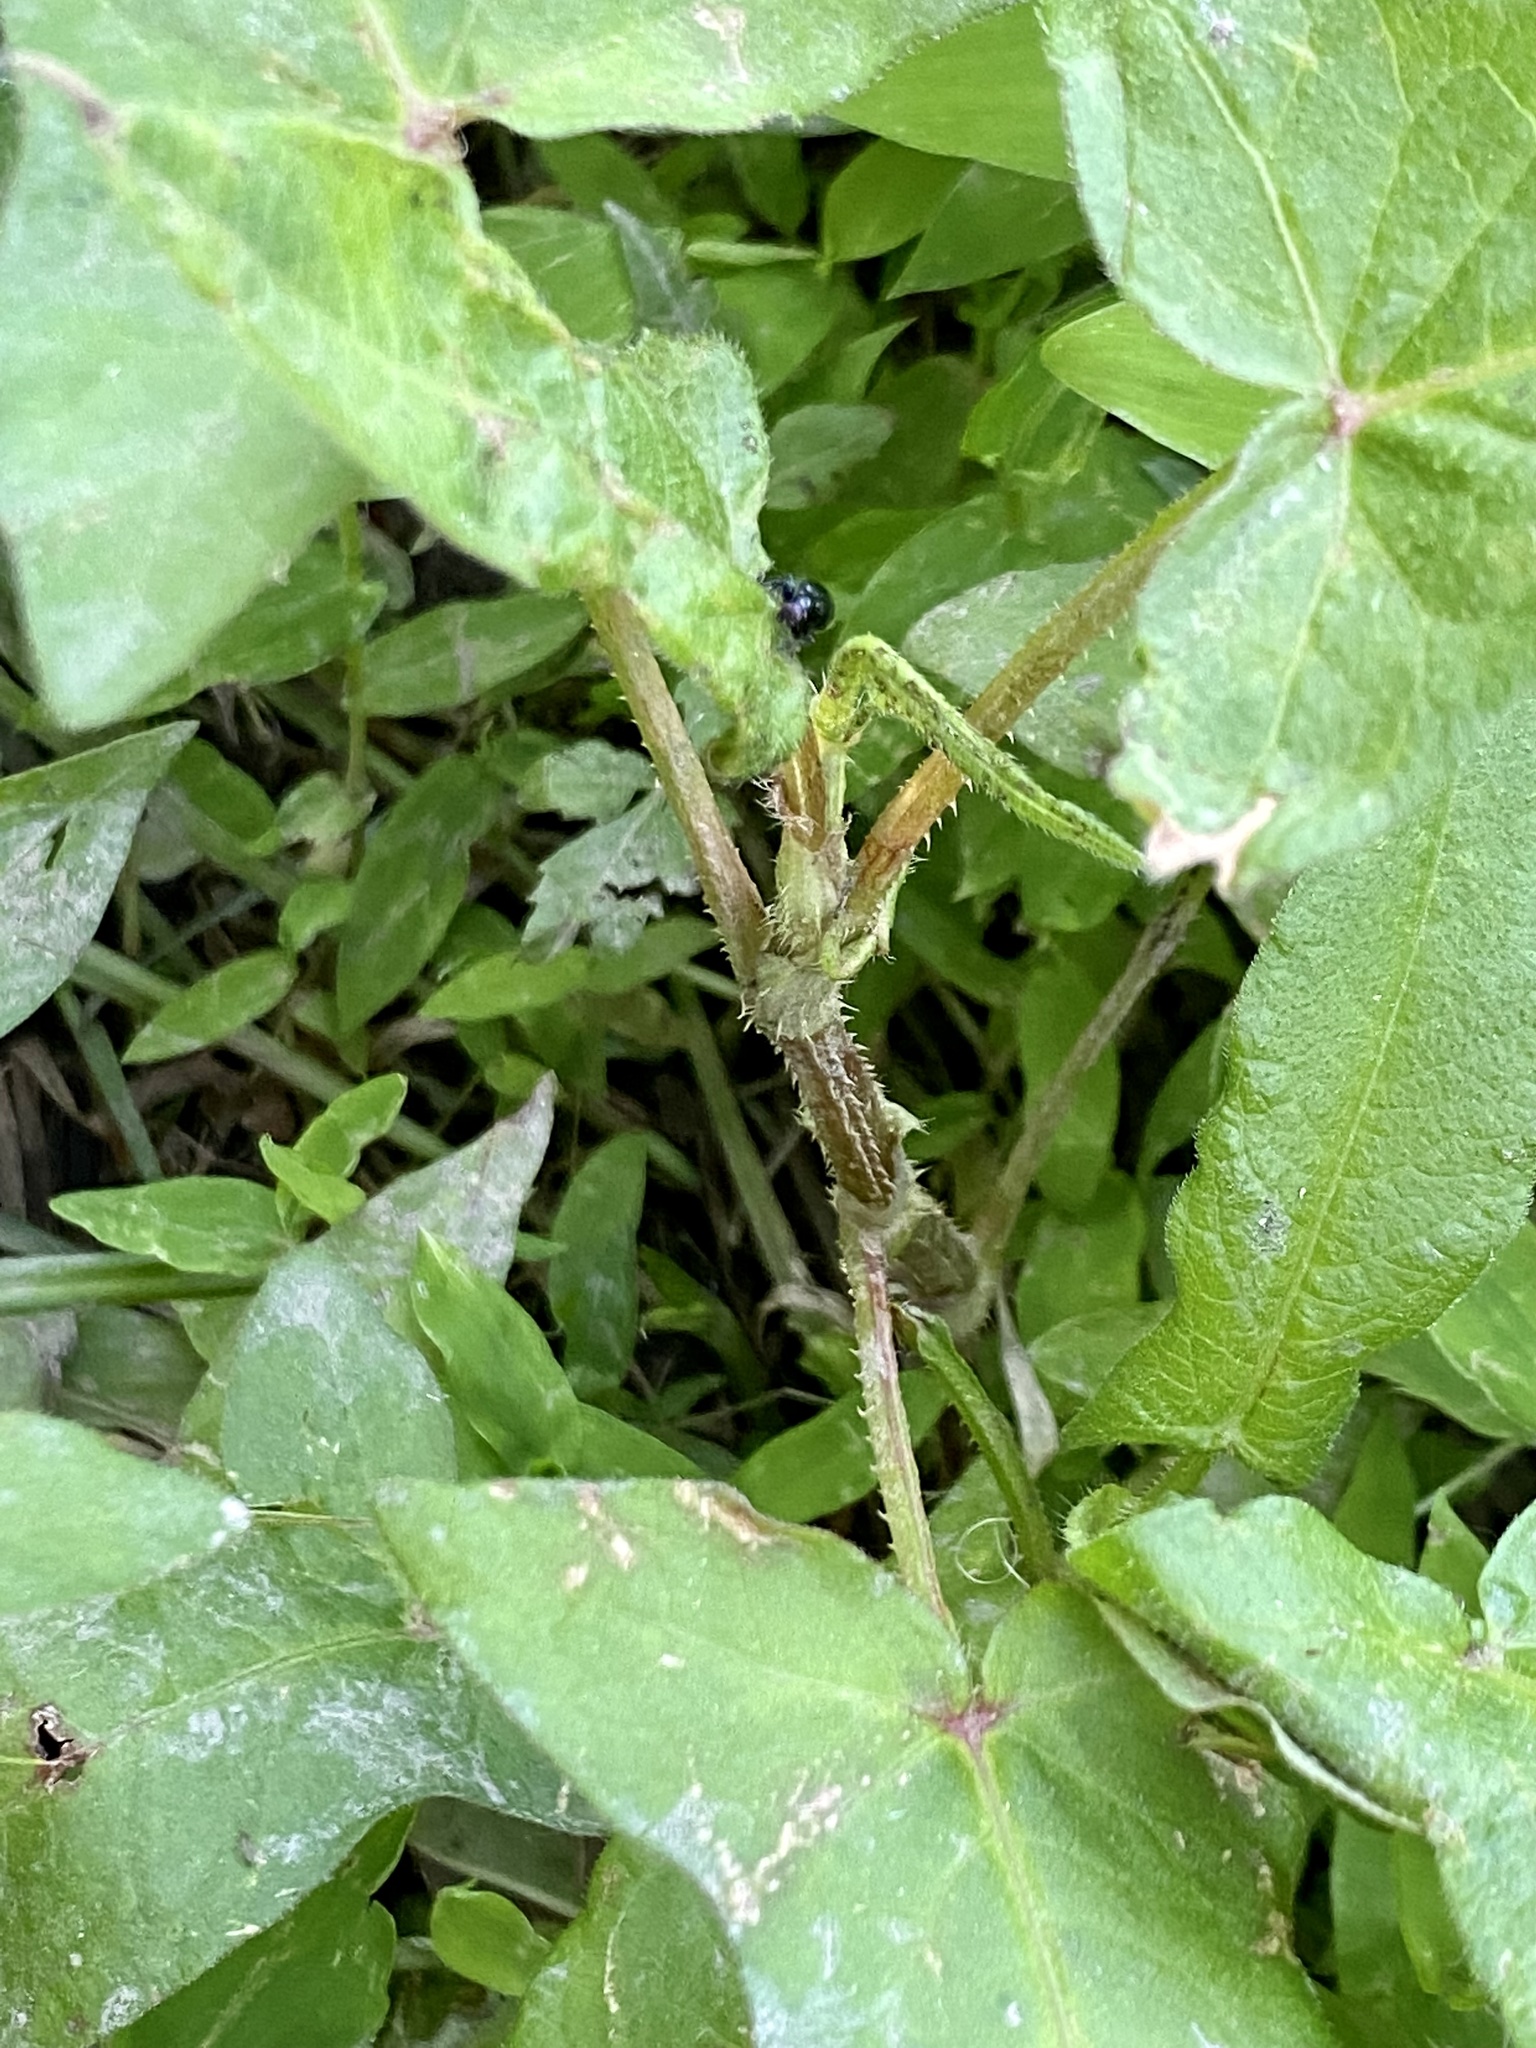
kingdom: Plantae
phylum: Tracheophyta
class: Magnoliopsida
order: Caryophyllales
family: Polygonaceae
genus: Persicaria
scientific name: Persicaria arifolia
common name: Halberd-leaved tear-thumb
